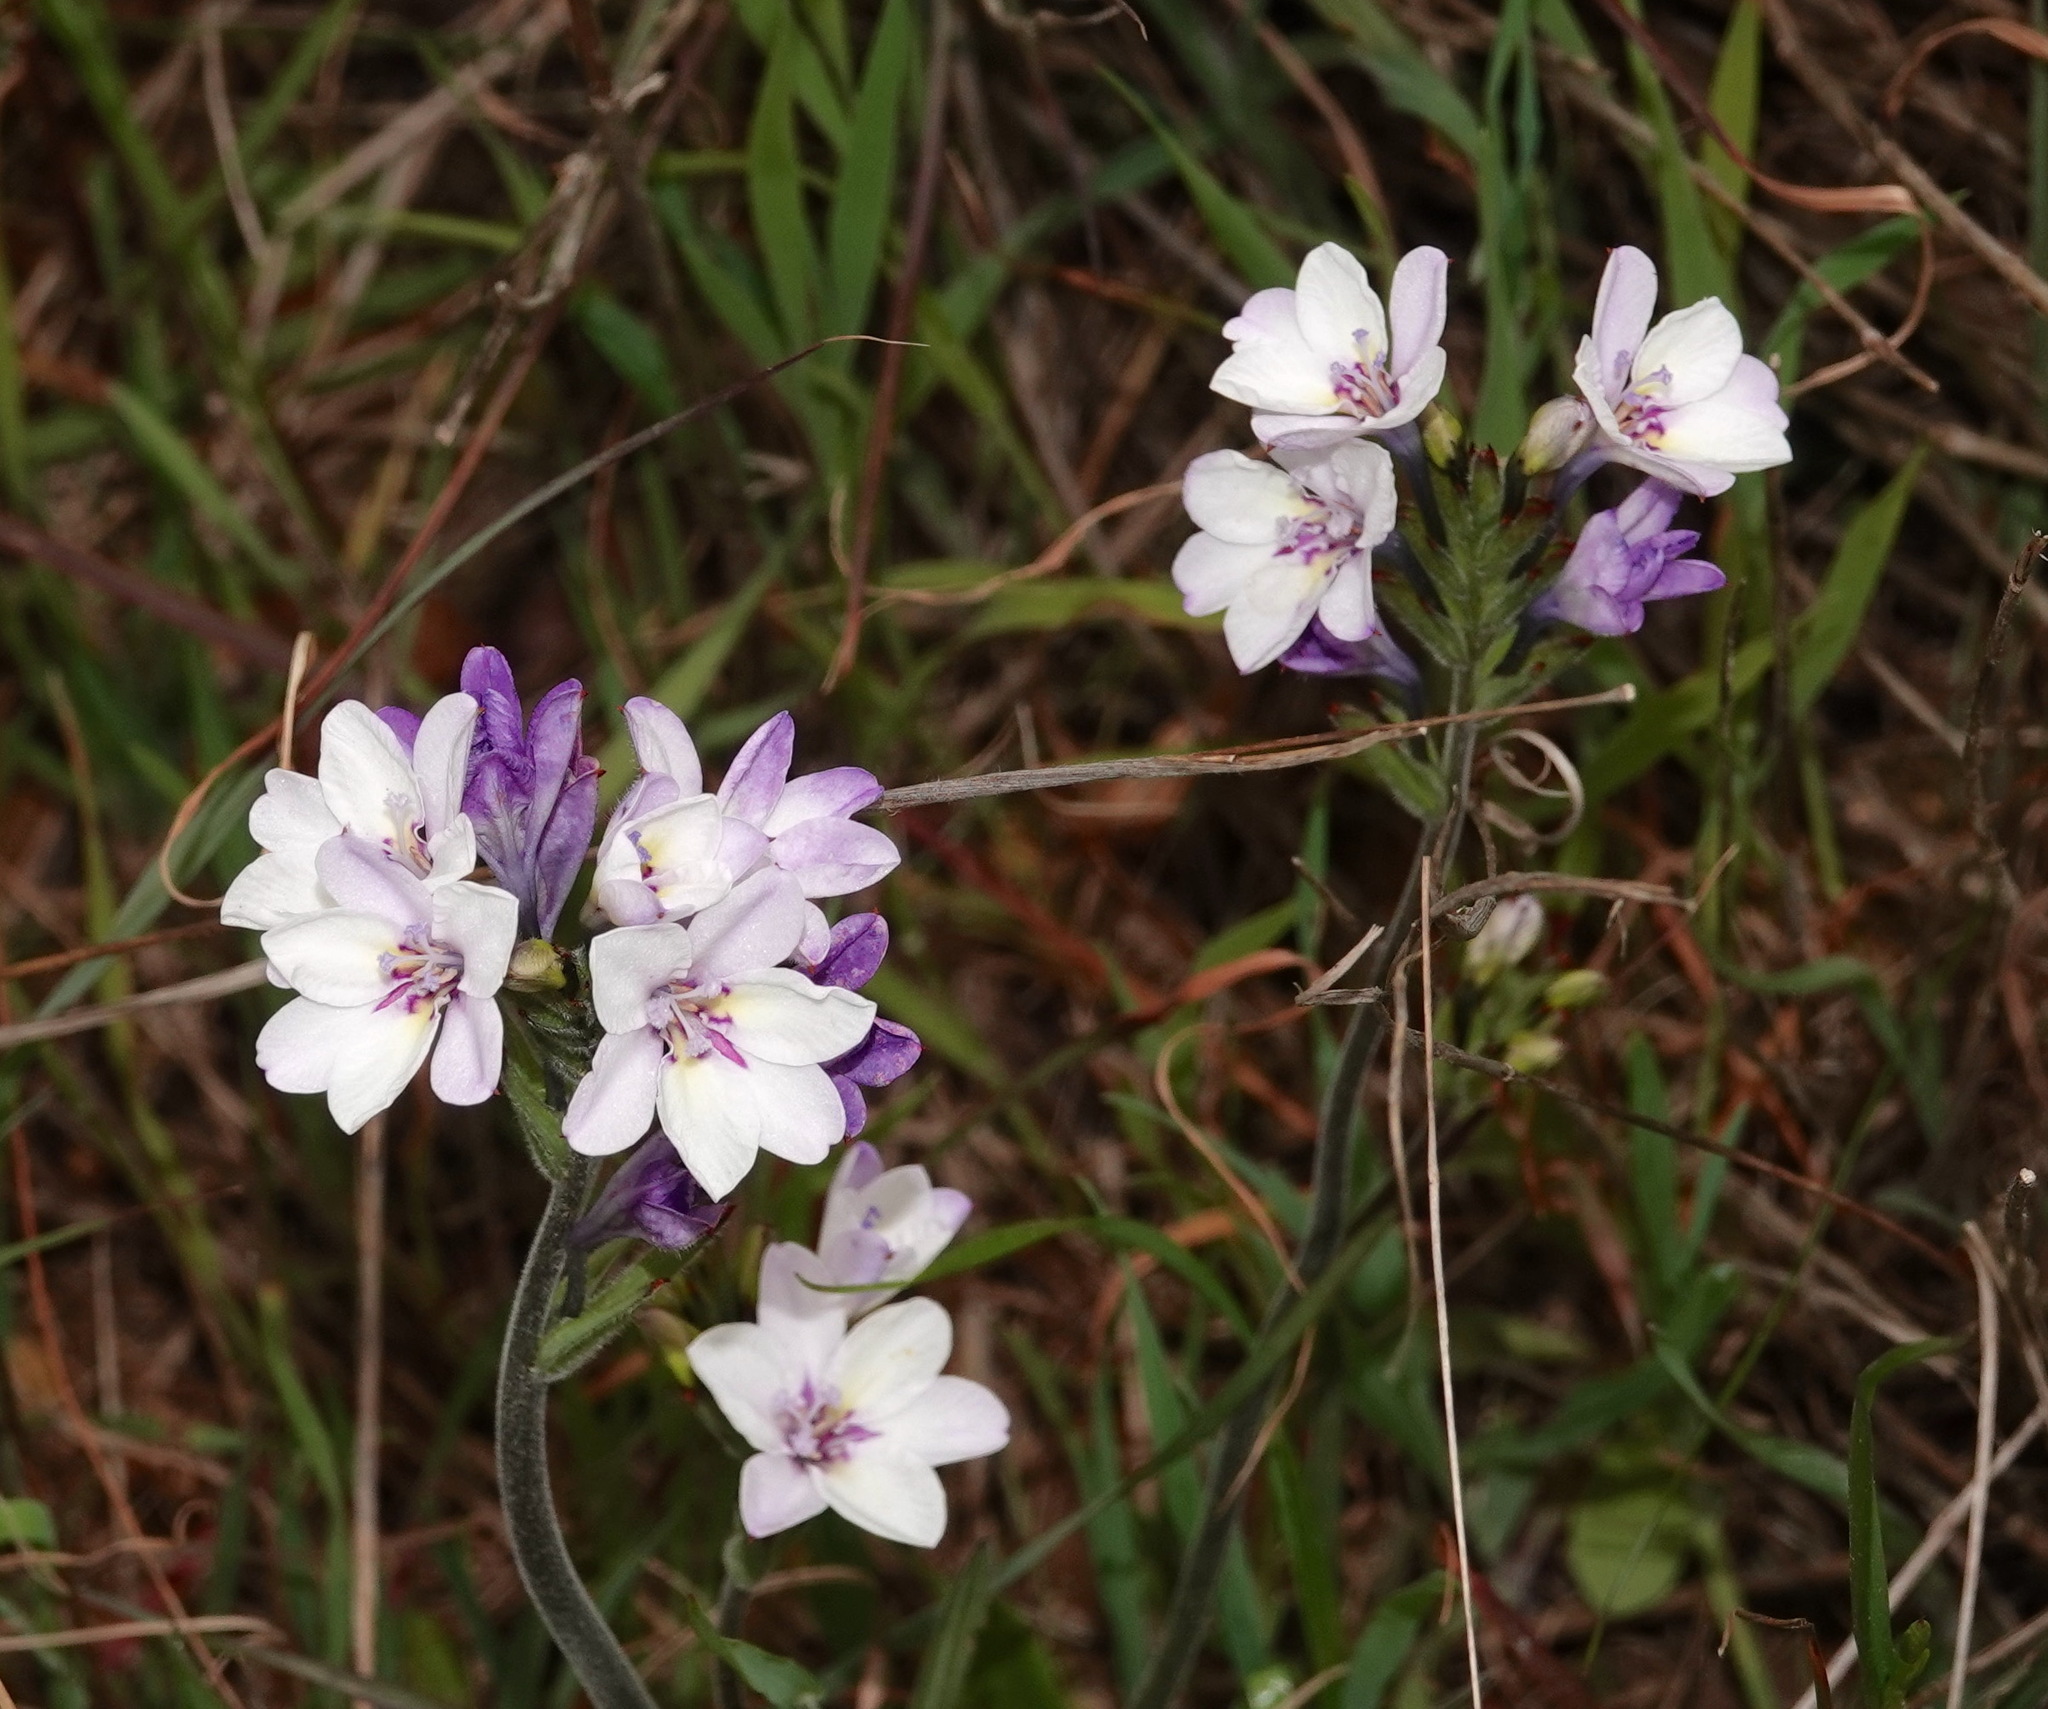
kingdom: Plantae
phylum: Tracheophyta
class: Liliopsida
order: Asparagales
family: Iridaceae
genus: Babiana
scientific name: Babiana patersoniae
